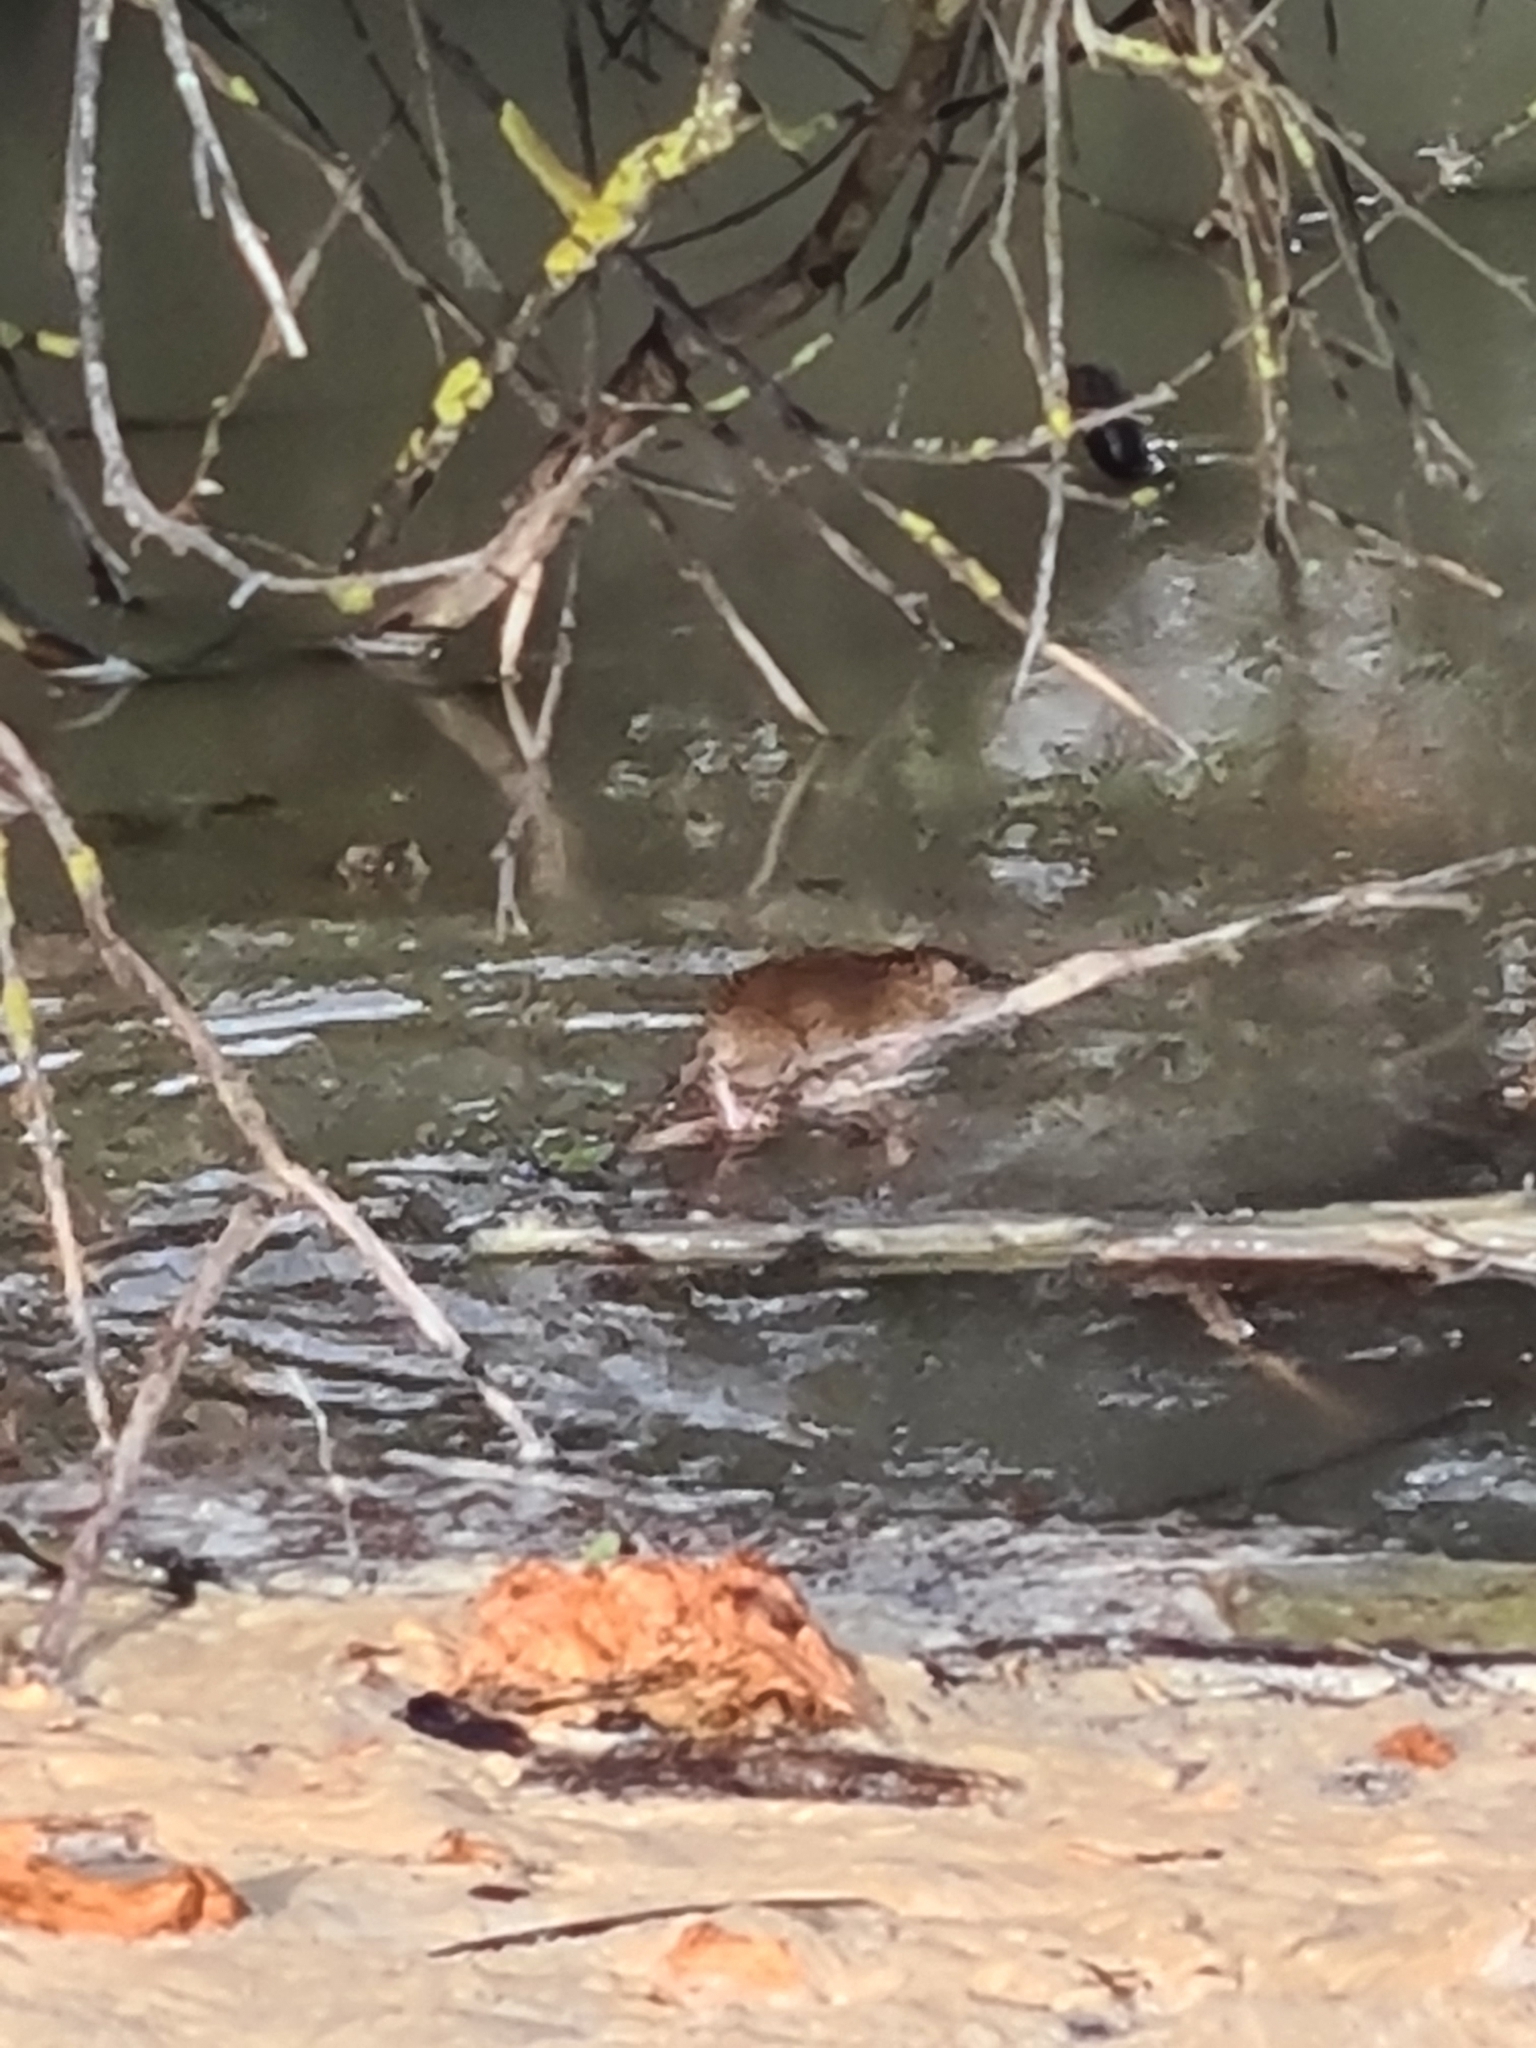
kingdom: Animalia
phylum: Chordata
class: Mammalia
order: Rodentia
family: Muridae
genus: Rattus
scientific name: Rattus norvegicus
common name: Brown rat
